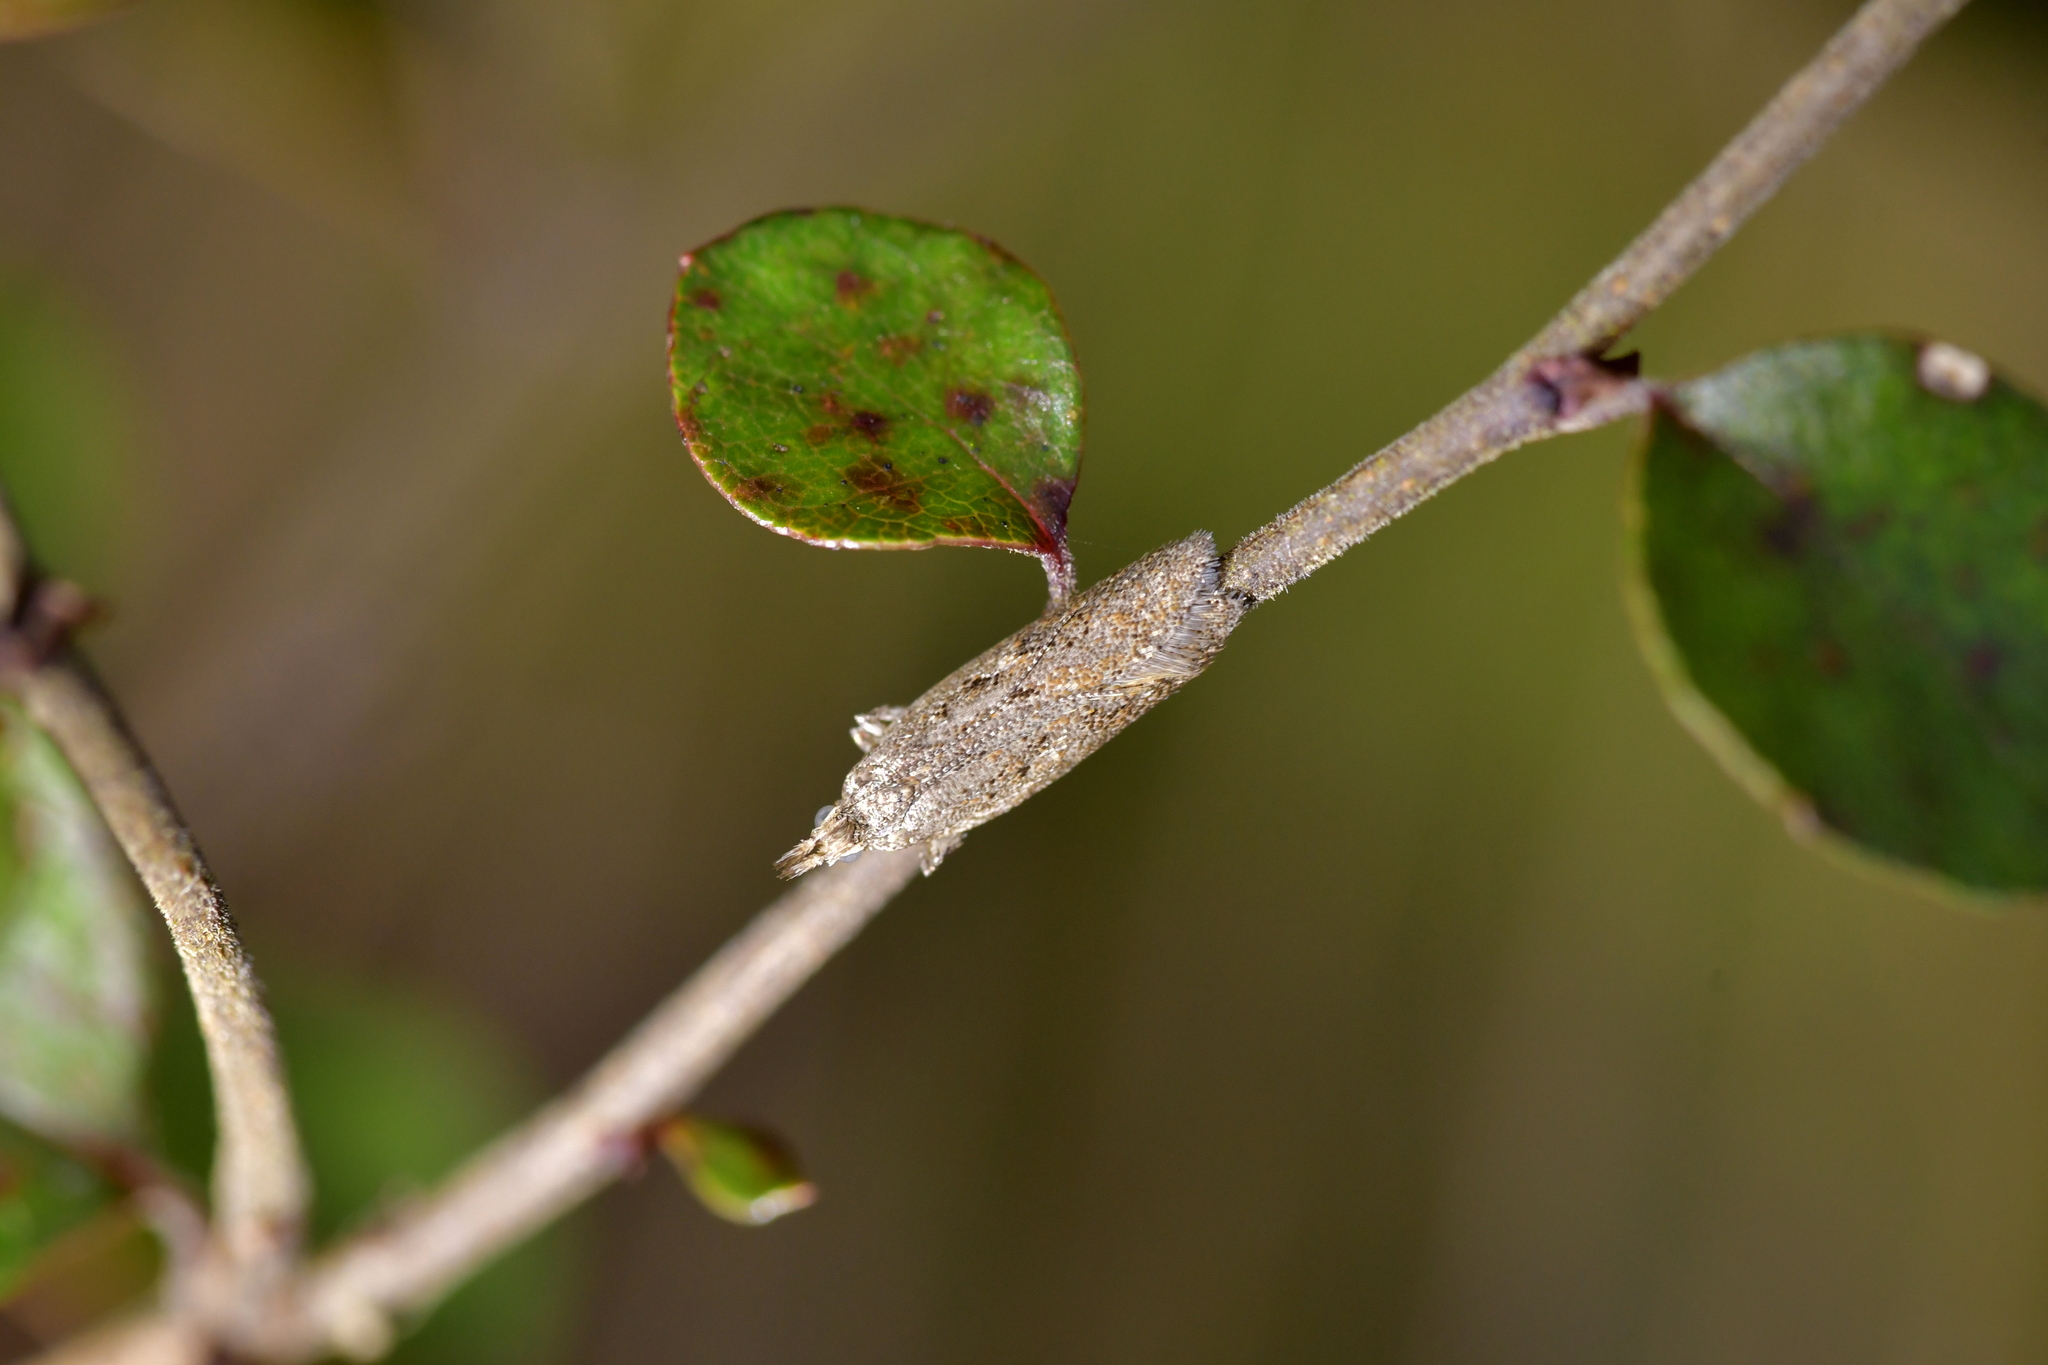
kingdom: Animalia
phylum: Arthropoda
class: Insecta
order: Lepidoptera
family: Oecophoridae
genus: Thamnosara
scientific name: Thamnosara sublitella
